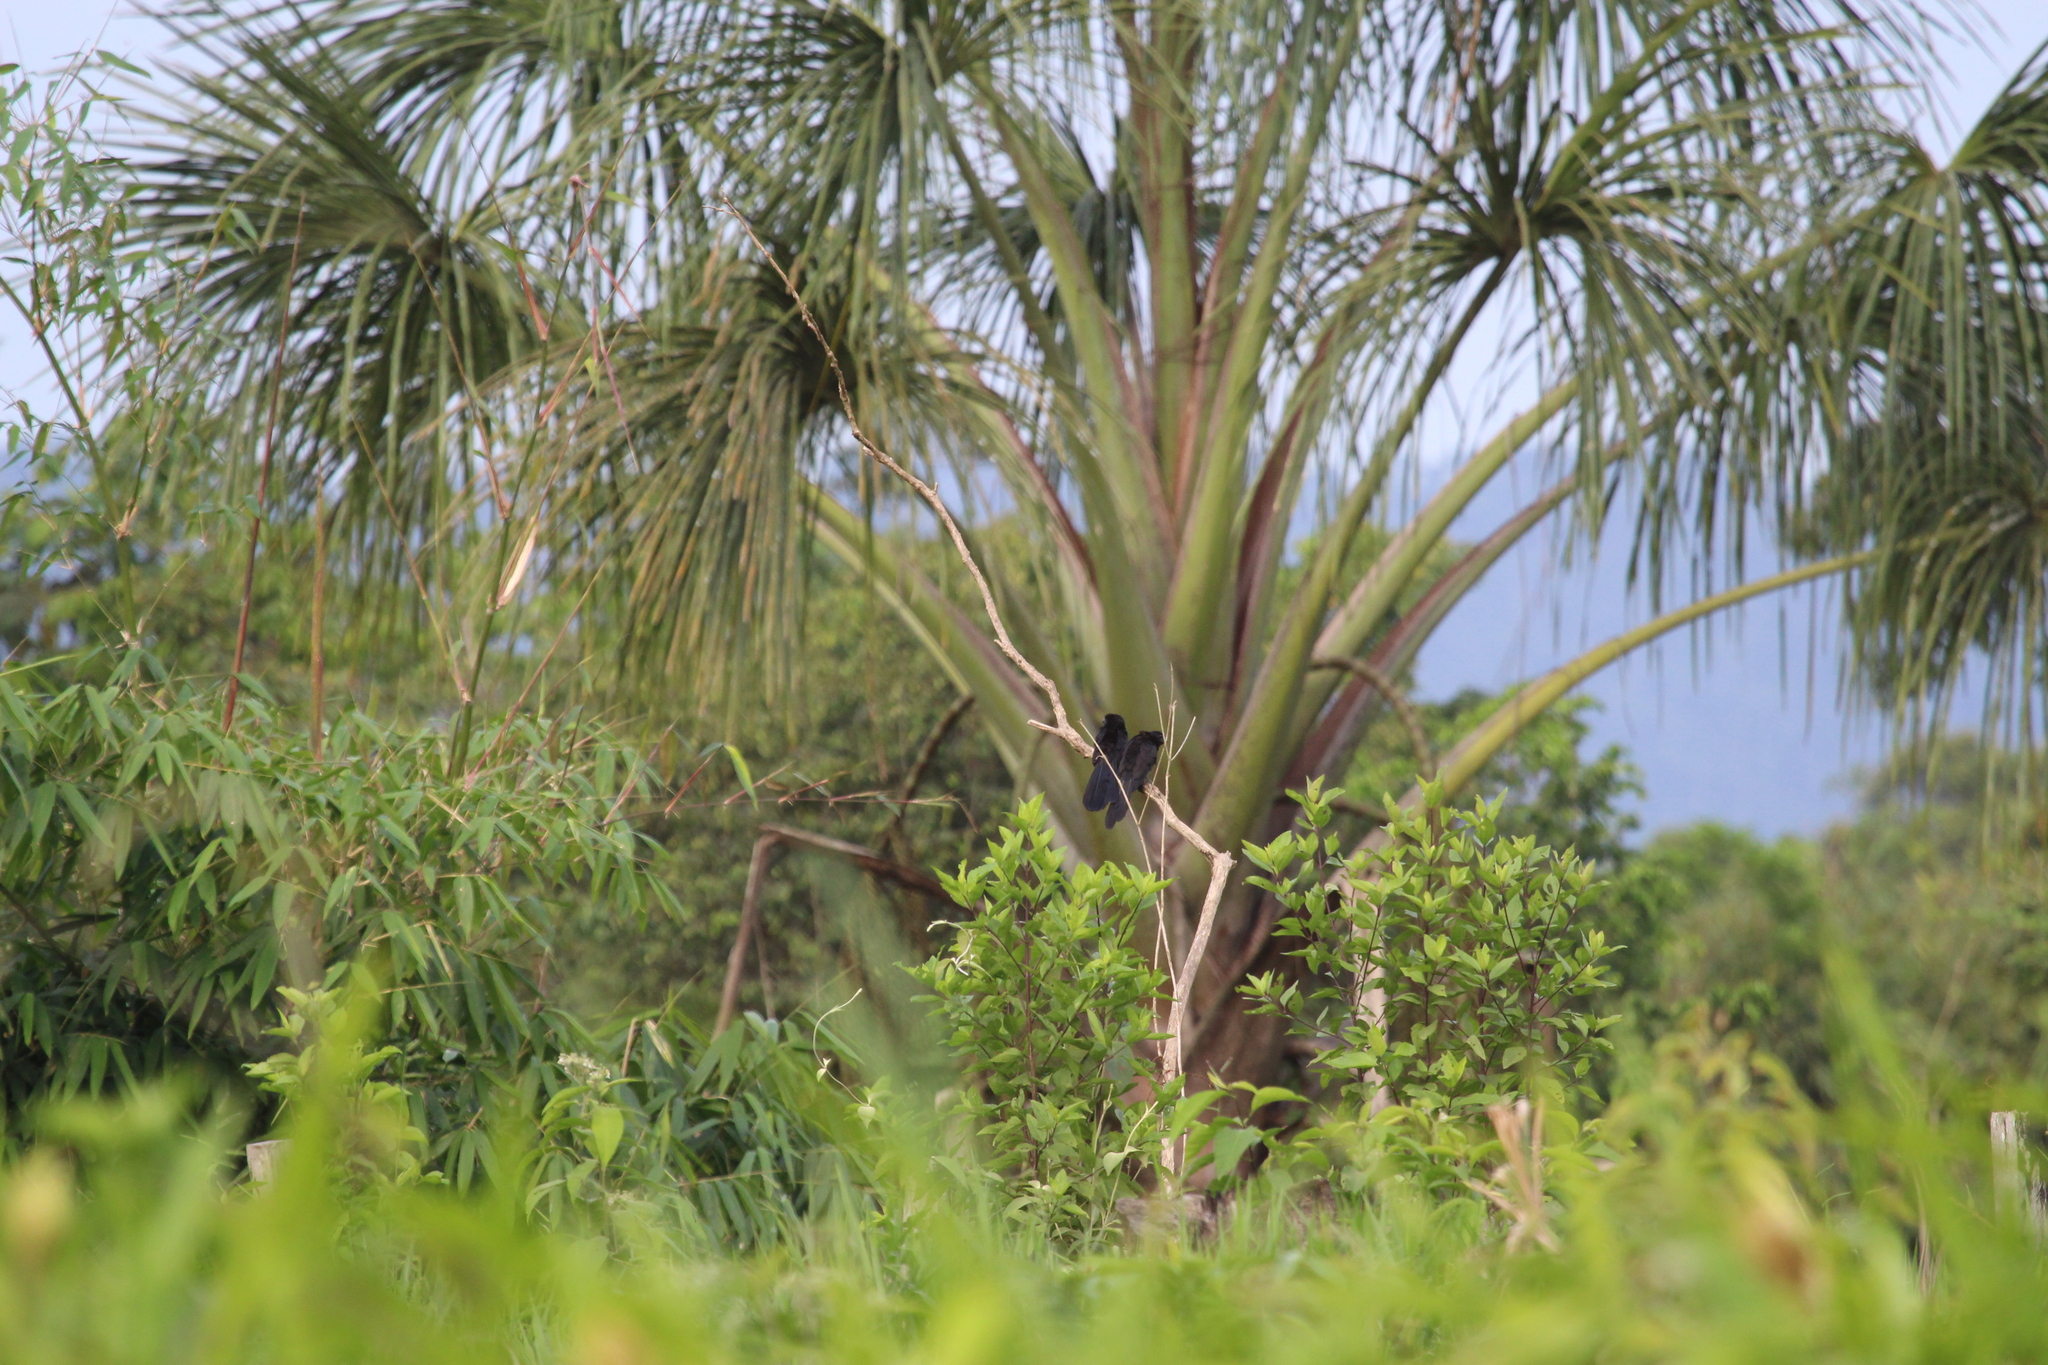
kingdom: Animalia
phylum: Chordata
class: Aves
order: Cuculiformes
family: Cuculidae
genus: Crotophaga
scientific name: Crotophaga ani
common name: Smooth-billed ani
